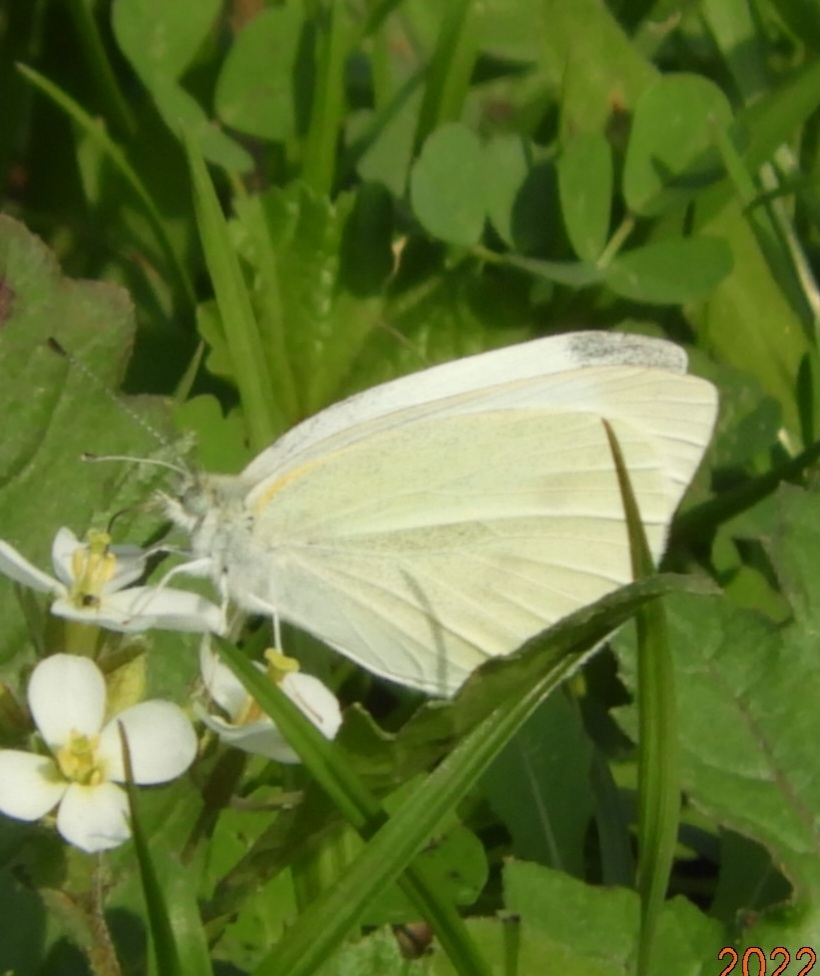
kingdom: Animalia
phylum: Arthropoda
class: Insecta
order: Lepidoptera
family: Pieridae
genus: Pieris
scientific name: Pieris rapae
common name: Small white
